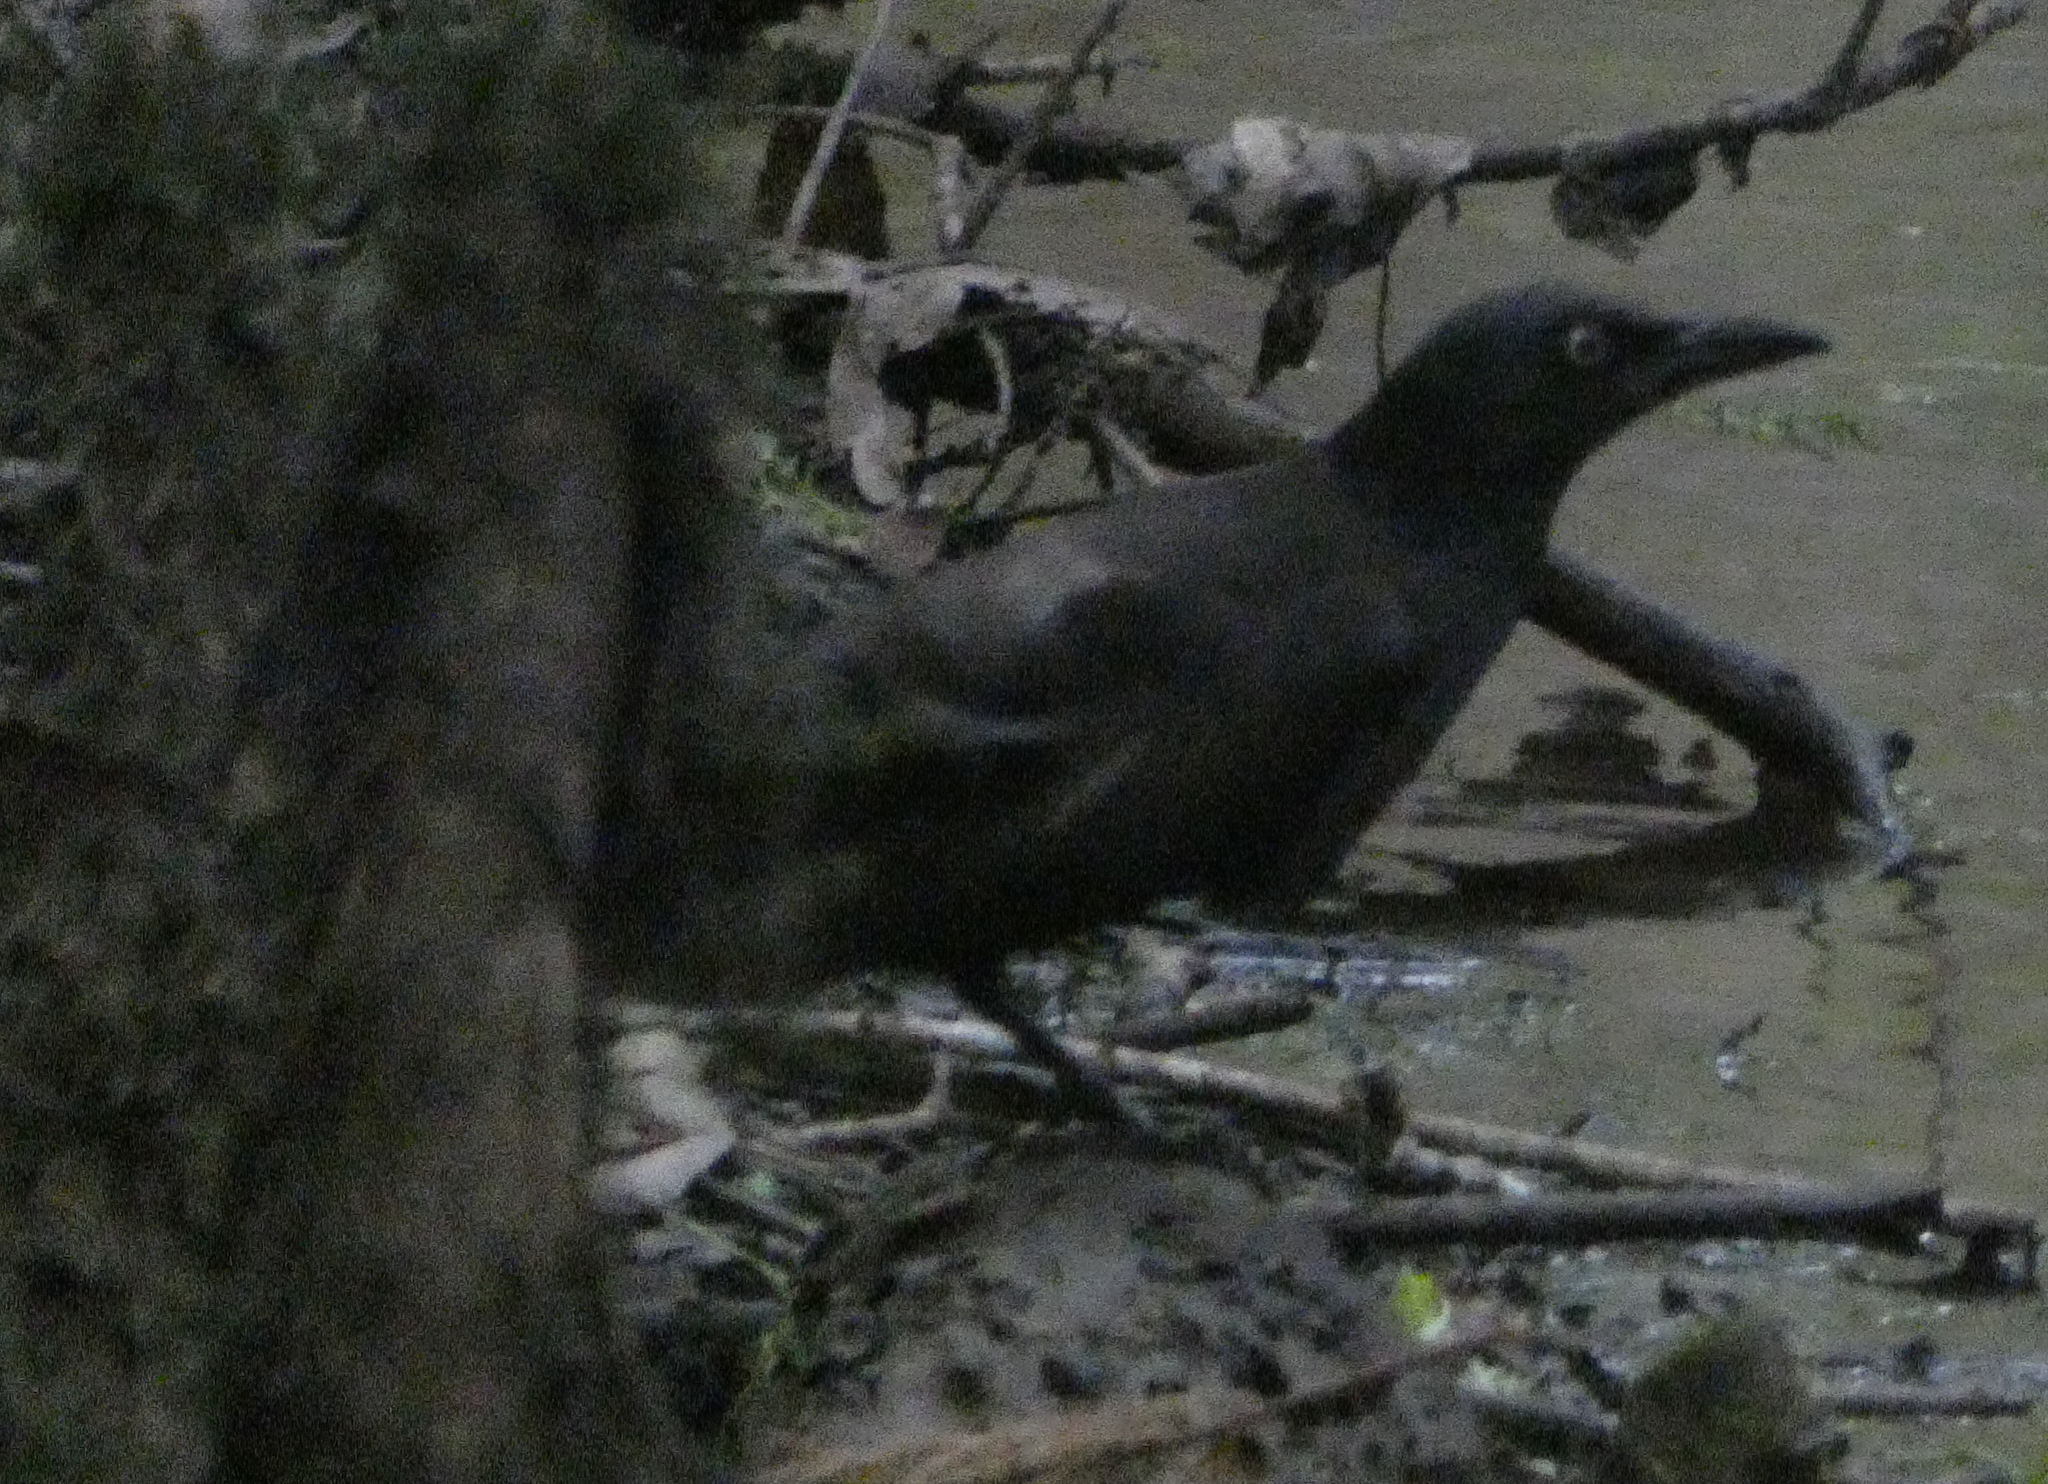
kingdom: Animalia
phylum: Chordata
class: Aves
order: Passeriformes
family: Icteridae
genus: Quiscalus
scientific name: Quiscalus quiscula
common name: Common grackle
